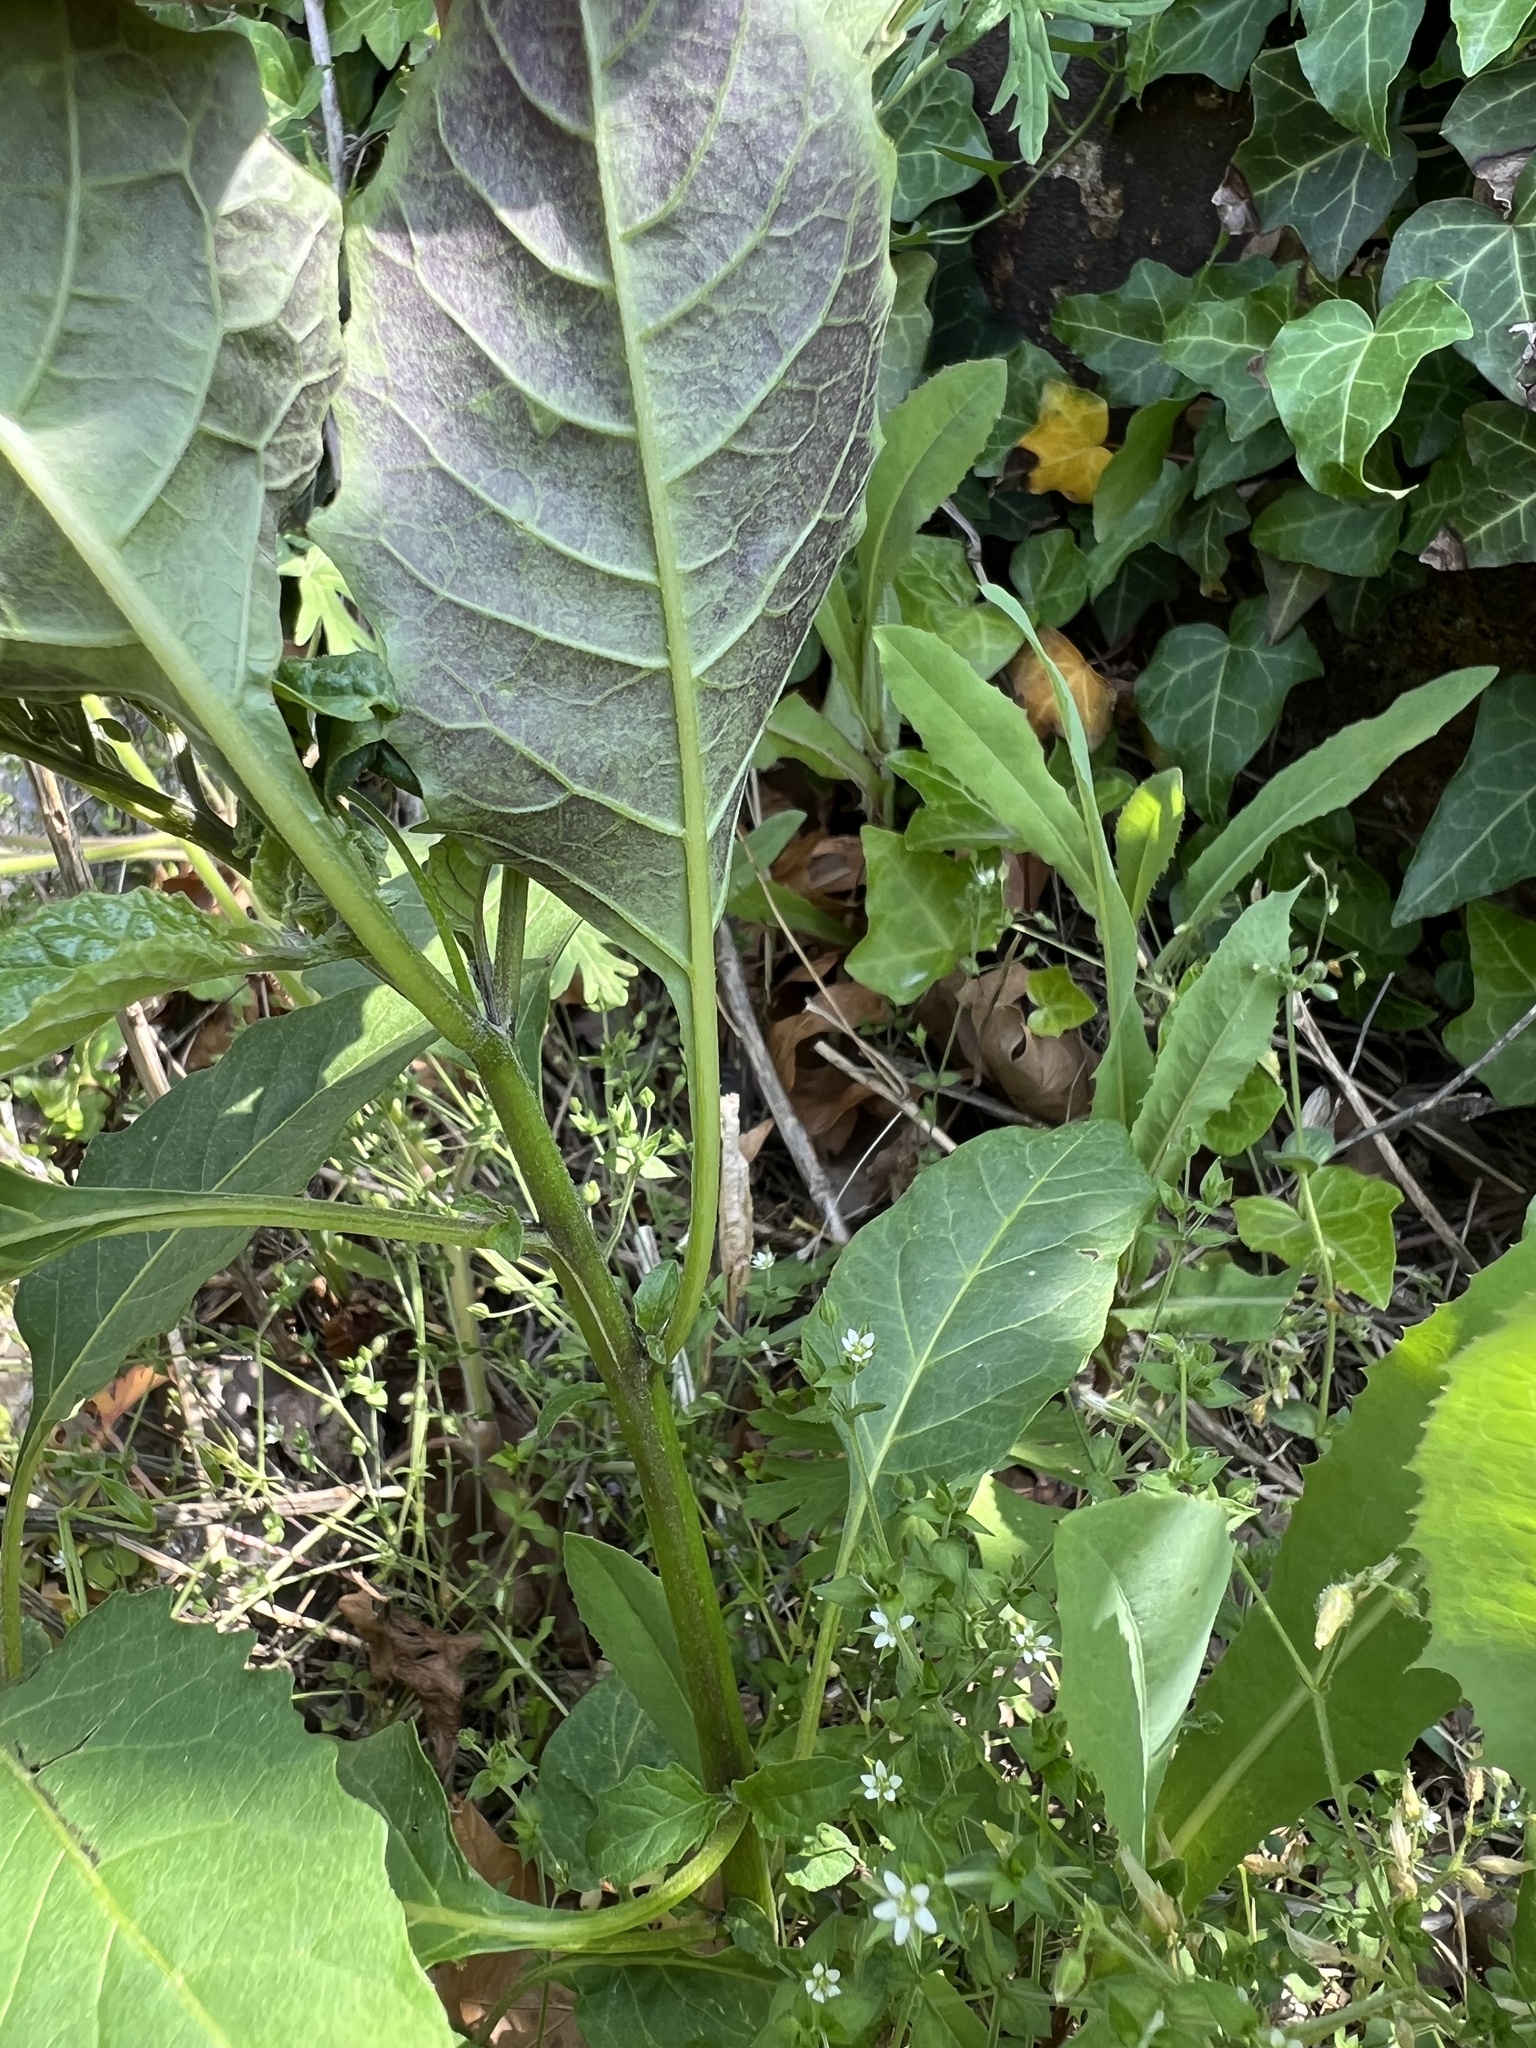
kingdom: Plantae
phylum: Tracheophyta
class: Magnoliopsida
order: Solanales
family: Solanaceae
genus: Solanum
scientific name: Solanum emulans
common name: Eastern black nightshade
